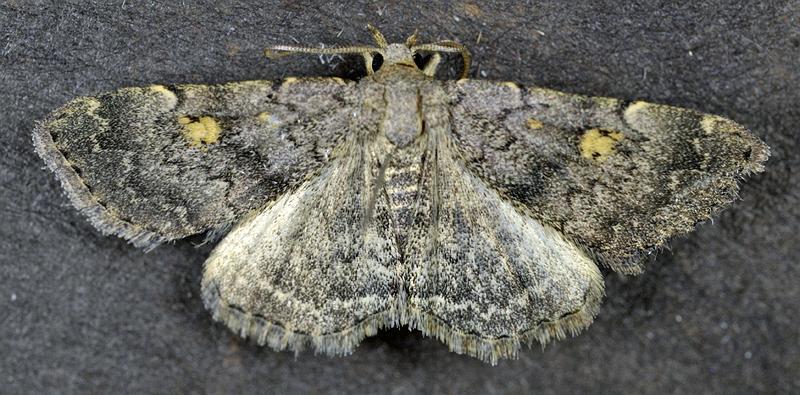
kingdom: Animalia
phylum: Arthropoda
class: Insecta
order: Lepidoptera
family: Erebidae
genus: Idia
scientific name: Idia aemula
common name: Common idia moth
